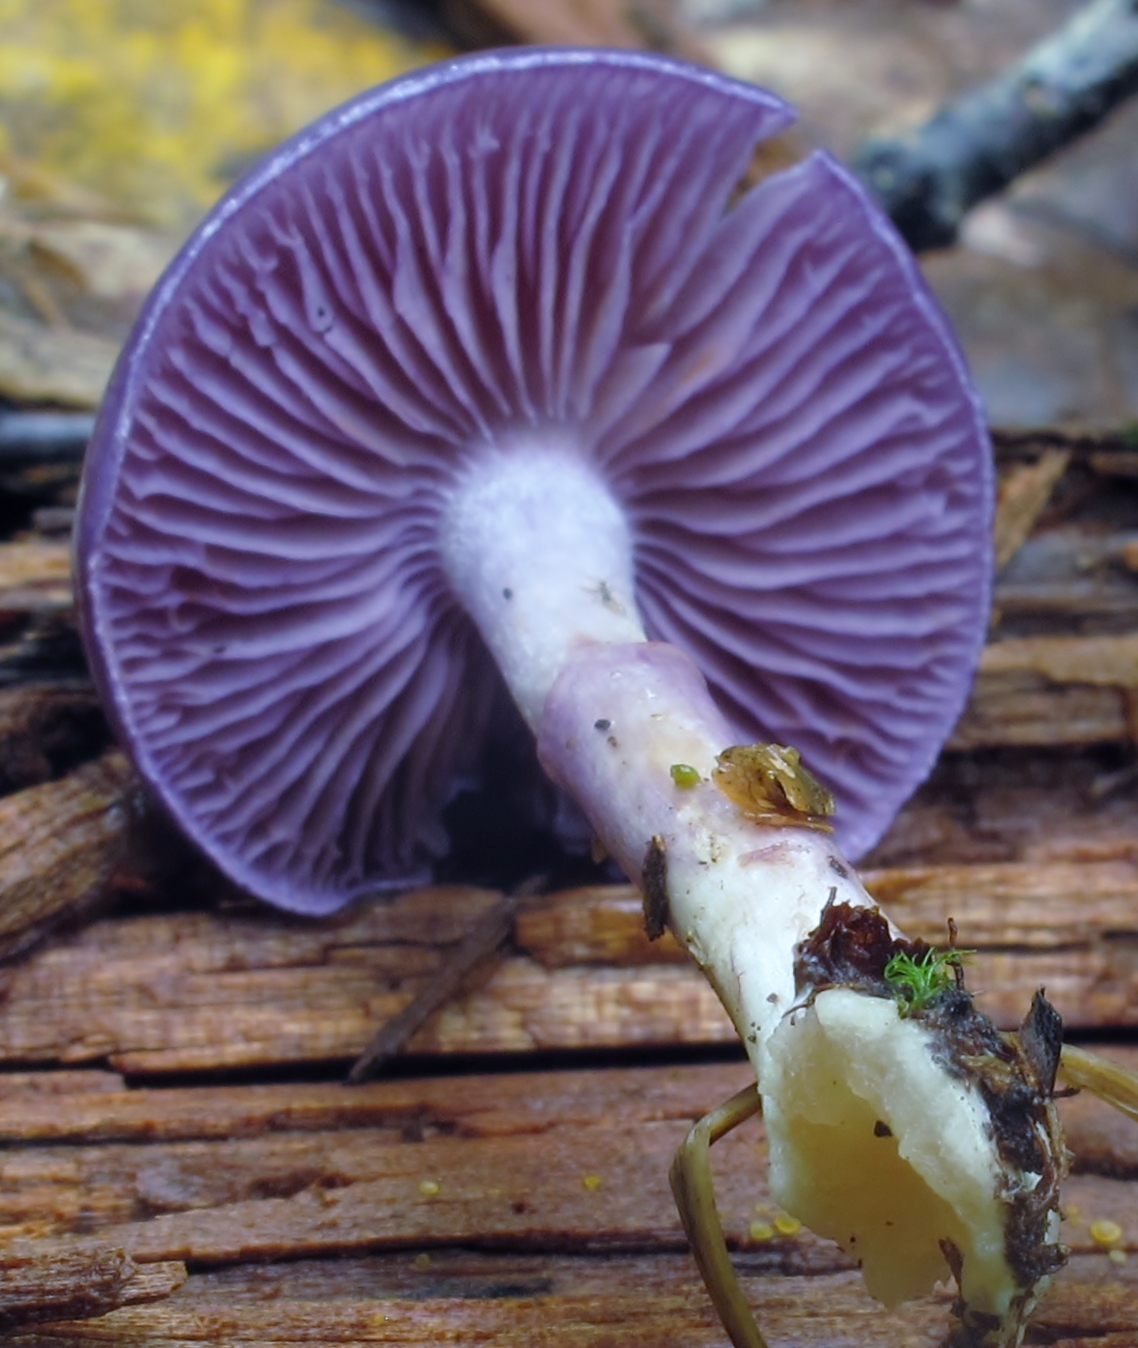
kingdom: Fungi
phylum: Basidiomycota
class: Agaricomycetes
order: Agaricales
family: Cortinariaceae
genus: Cortinarius
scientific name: Cortinarius iodes
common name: Viscid violet cort
